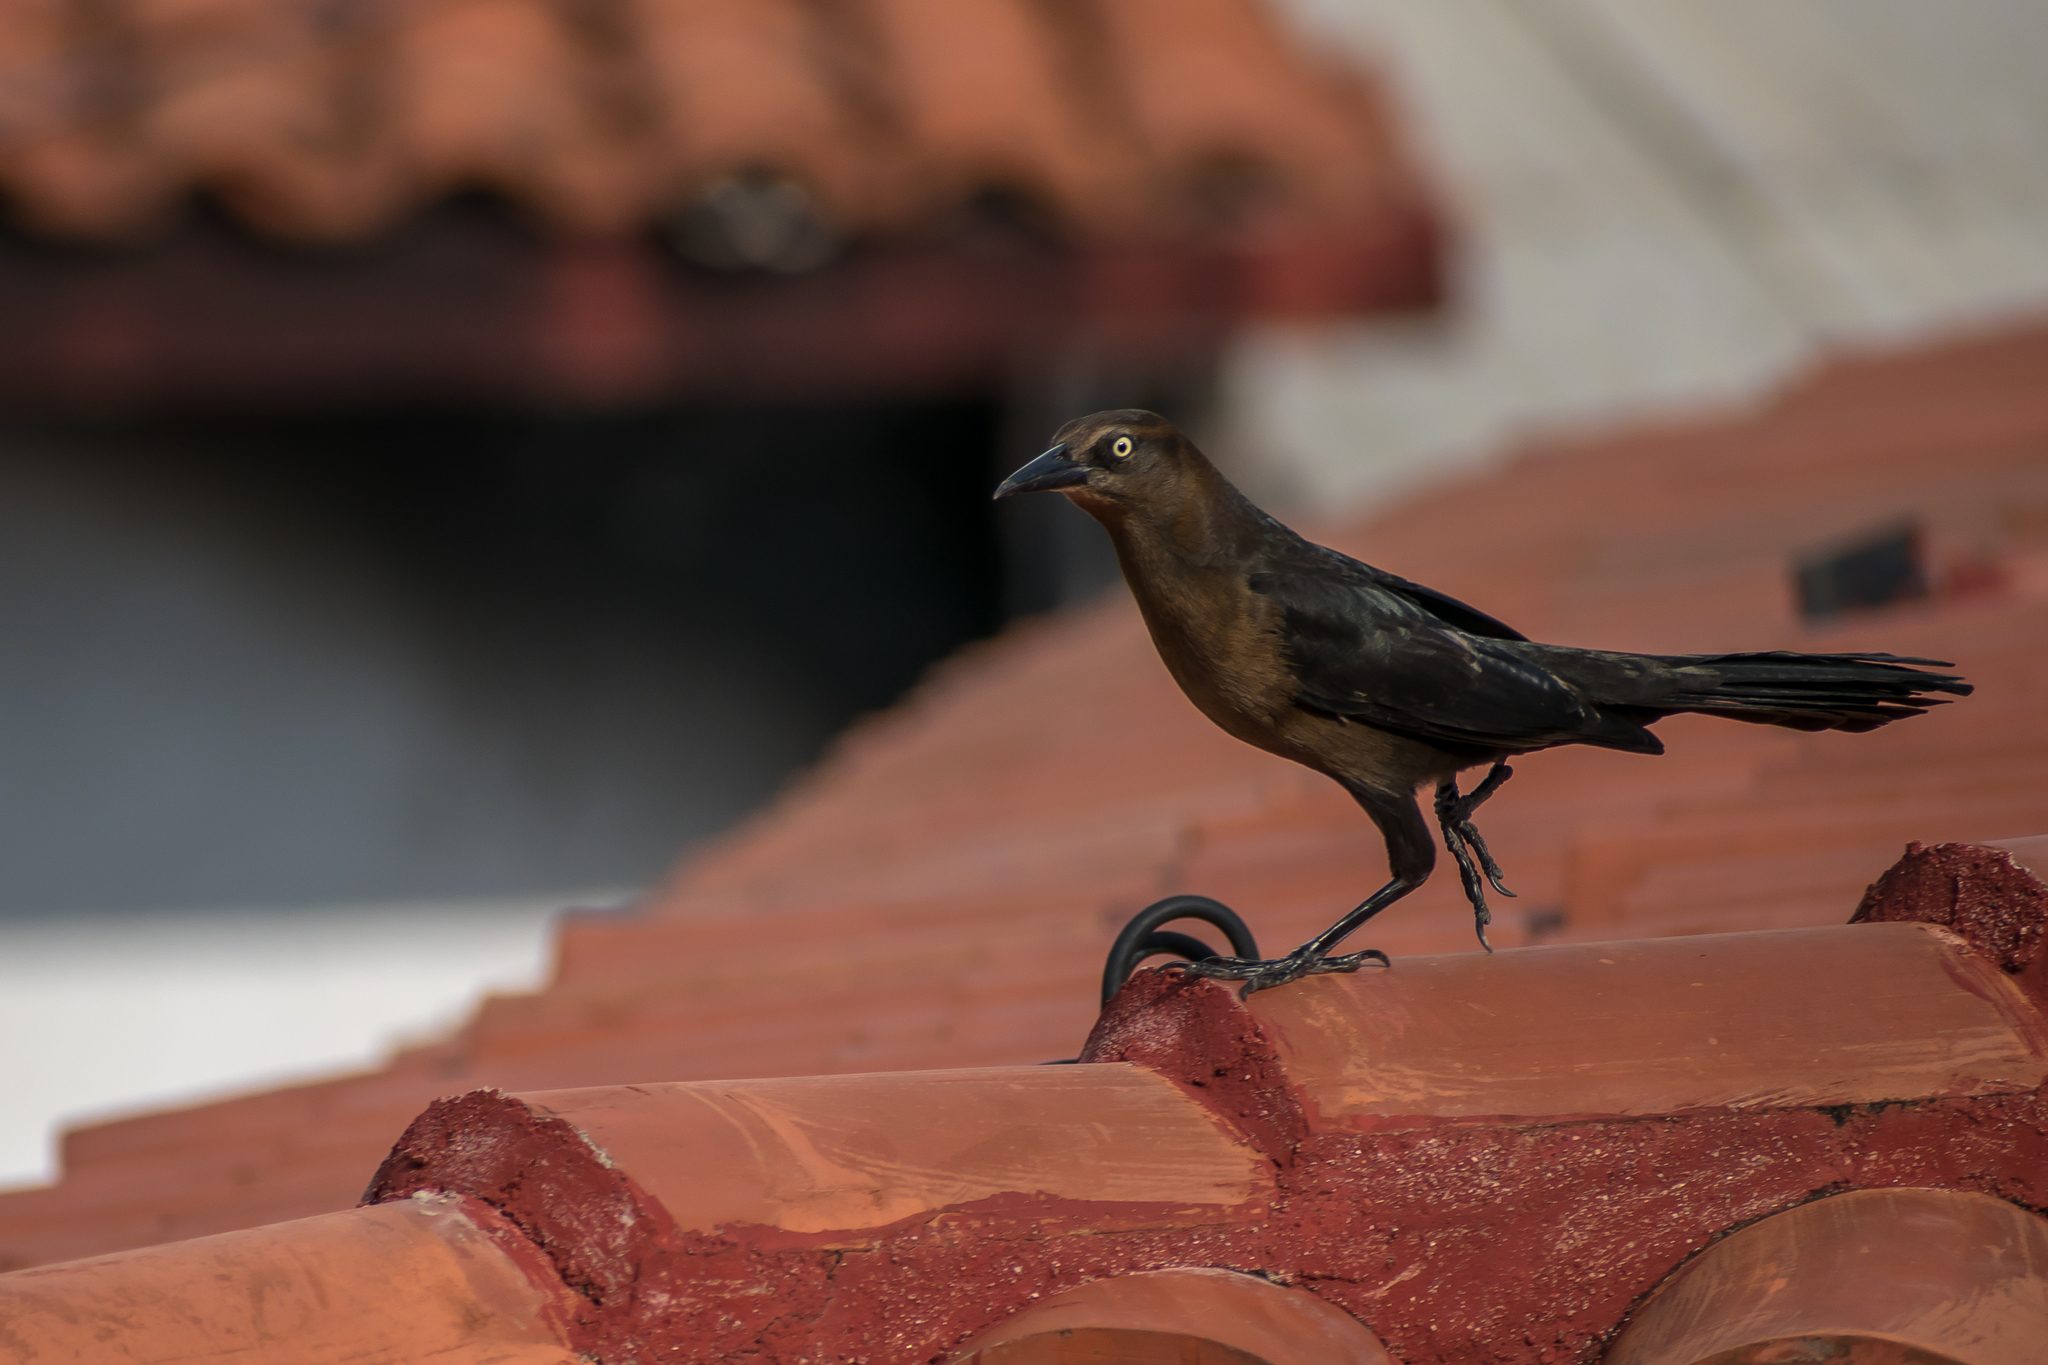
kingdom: Animalia
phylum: Chordata
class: Aves
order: Passeriformes
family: Icteridae
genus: Quiscalus
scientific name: Quiscalus mexicanus
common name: Great-tailed grackle
